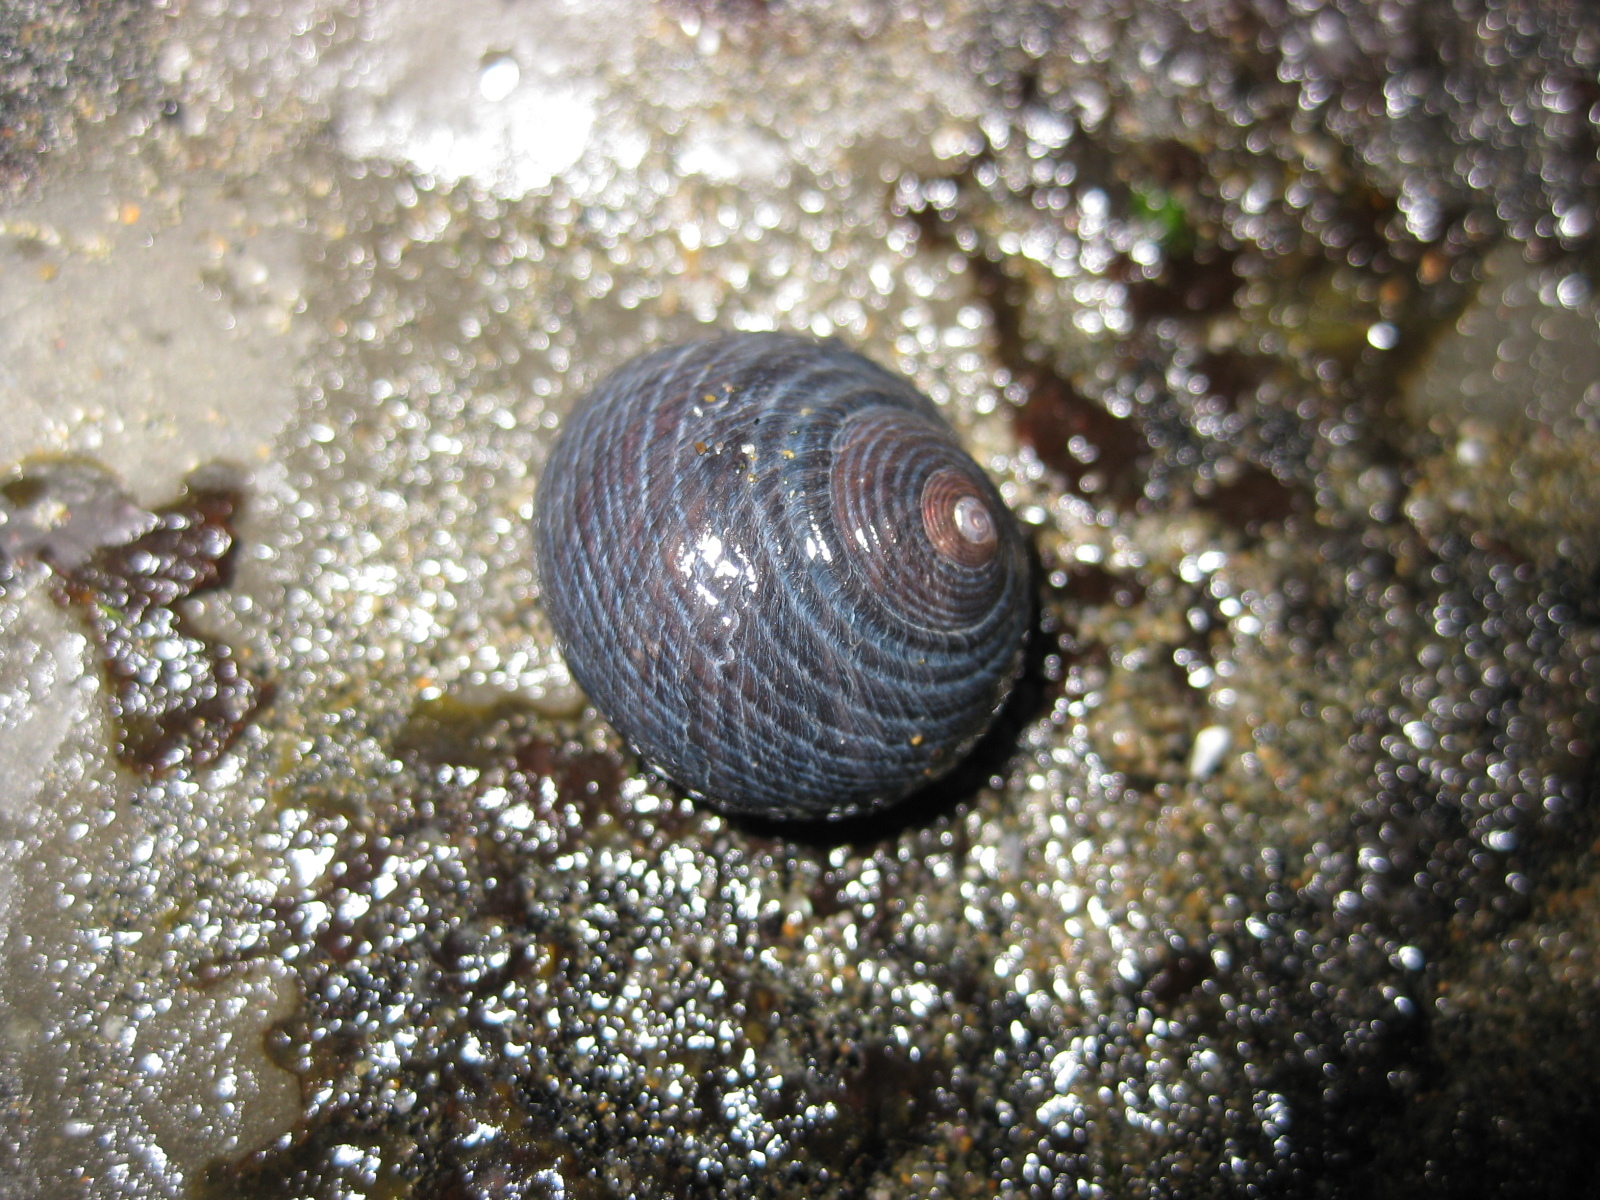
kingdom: Animalia
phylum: Mollusca
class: Gastropoda
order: Trochida
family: Trochidae
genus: Diloma
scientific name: Diloma nigerrimum
